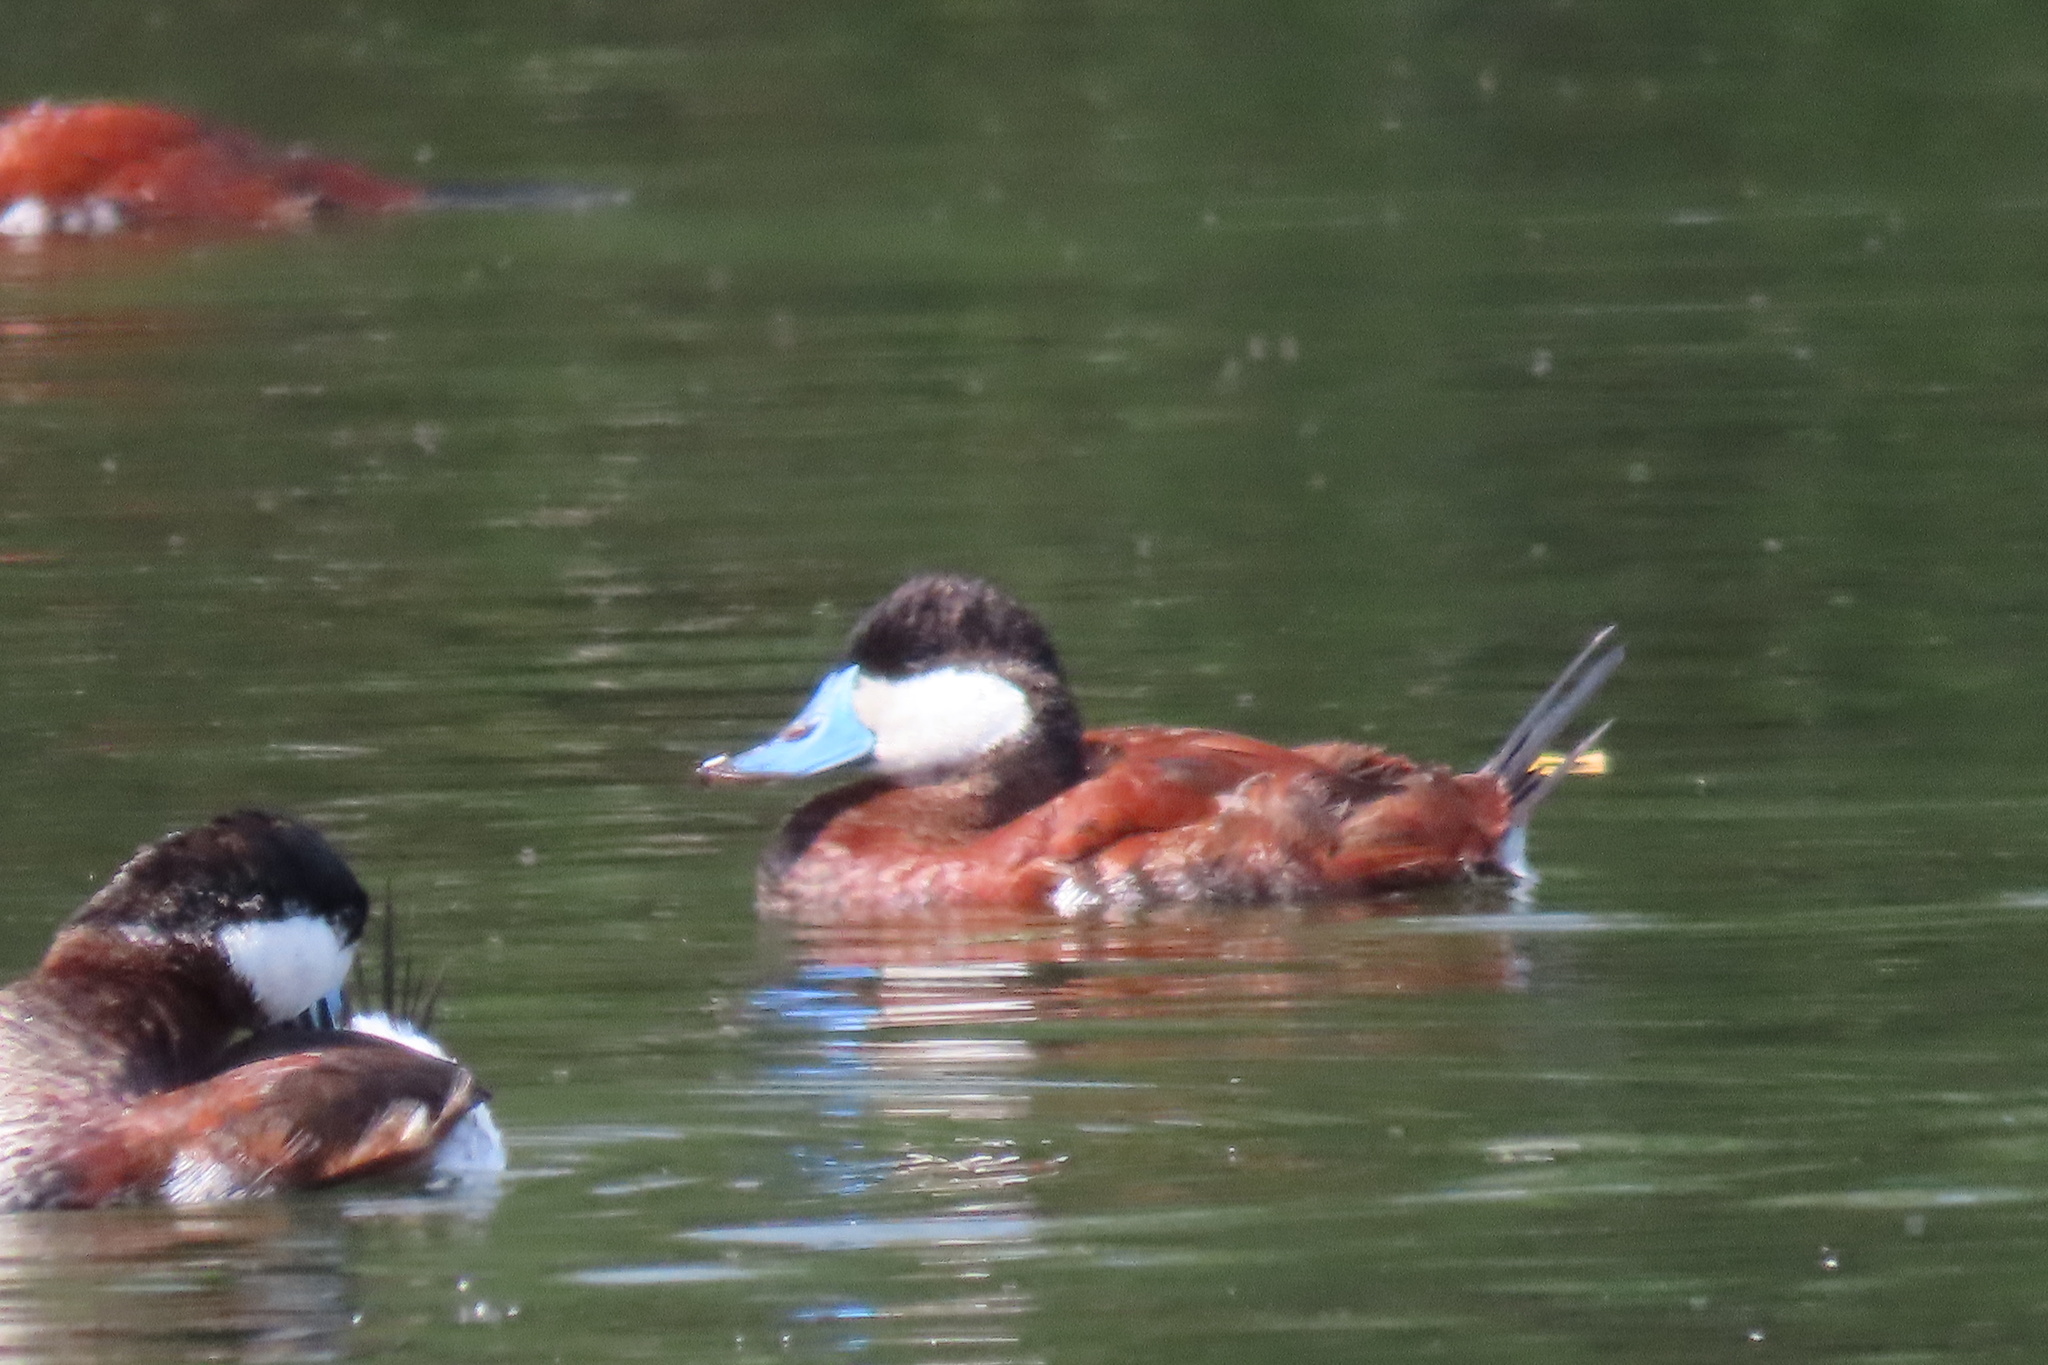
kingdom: Animalia
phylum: Chordata
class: Aves
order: Anseriformes
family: Anatidae
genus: Oxyura
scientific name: Oxyura jamaicensis
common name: Ruddy duck
